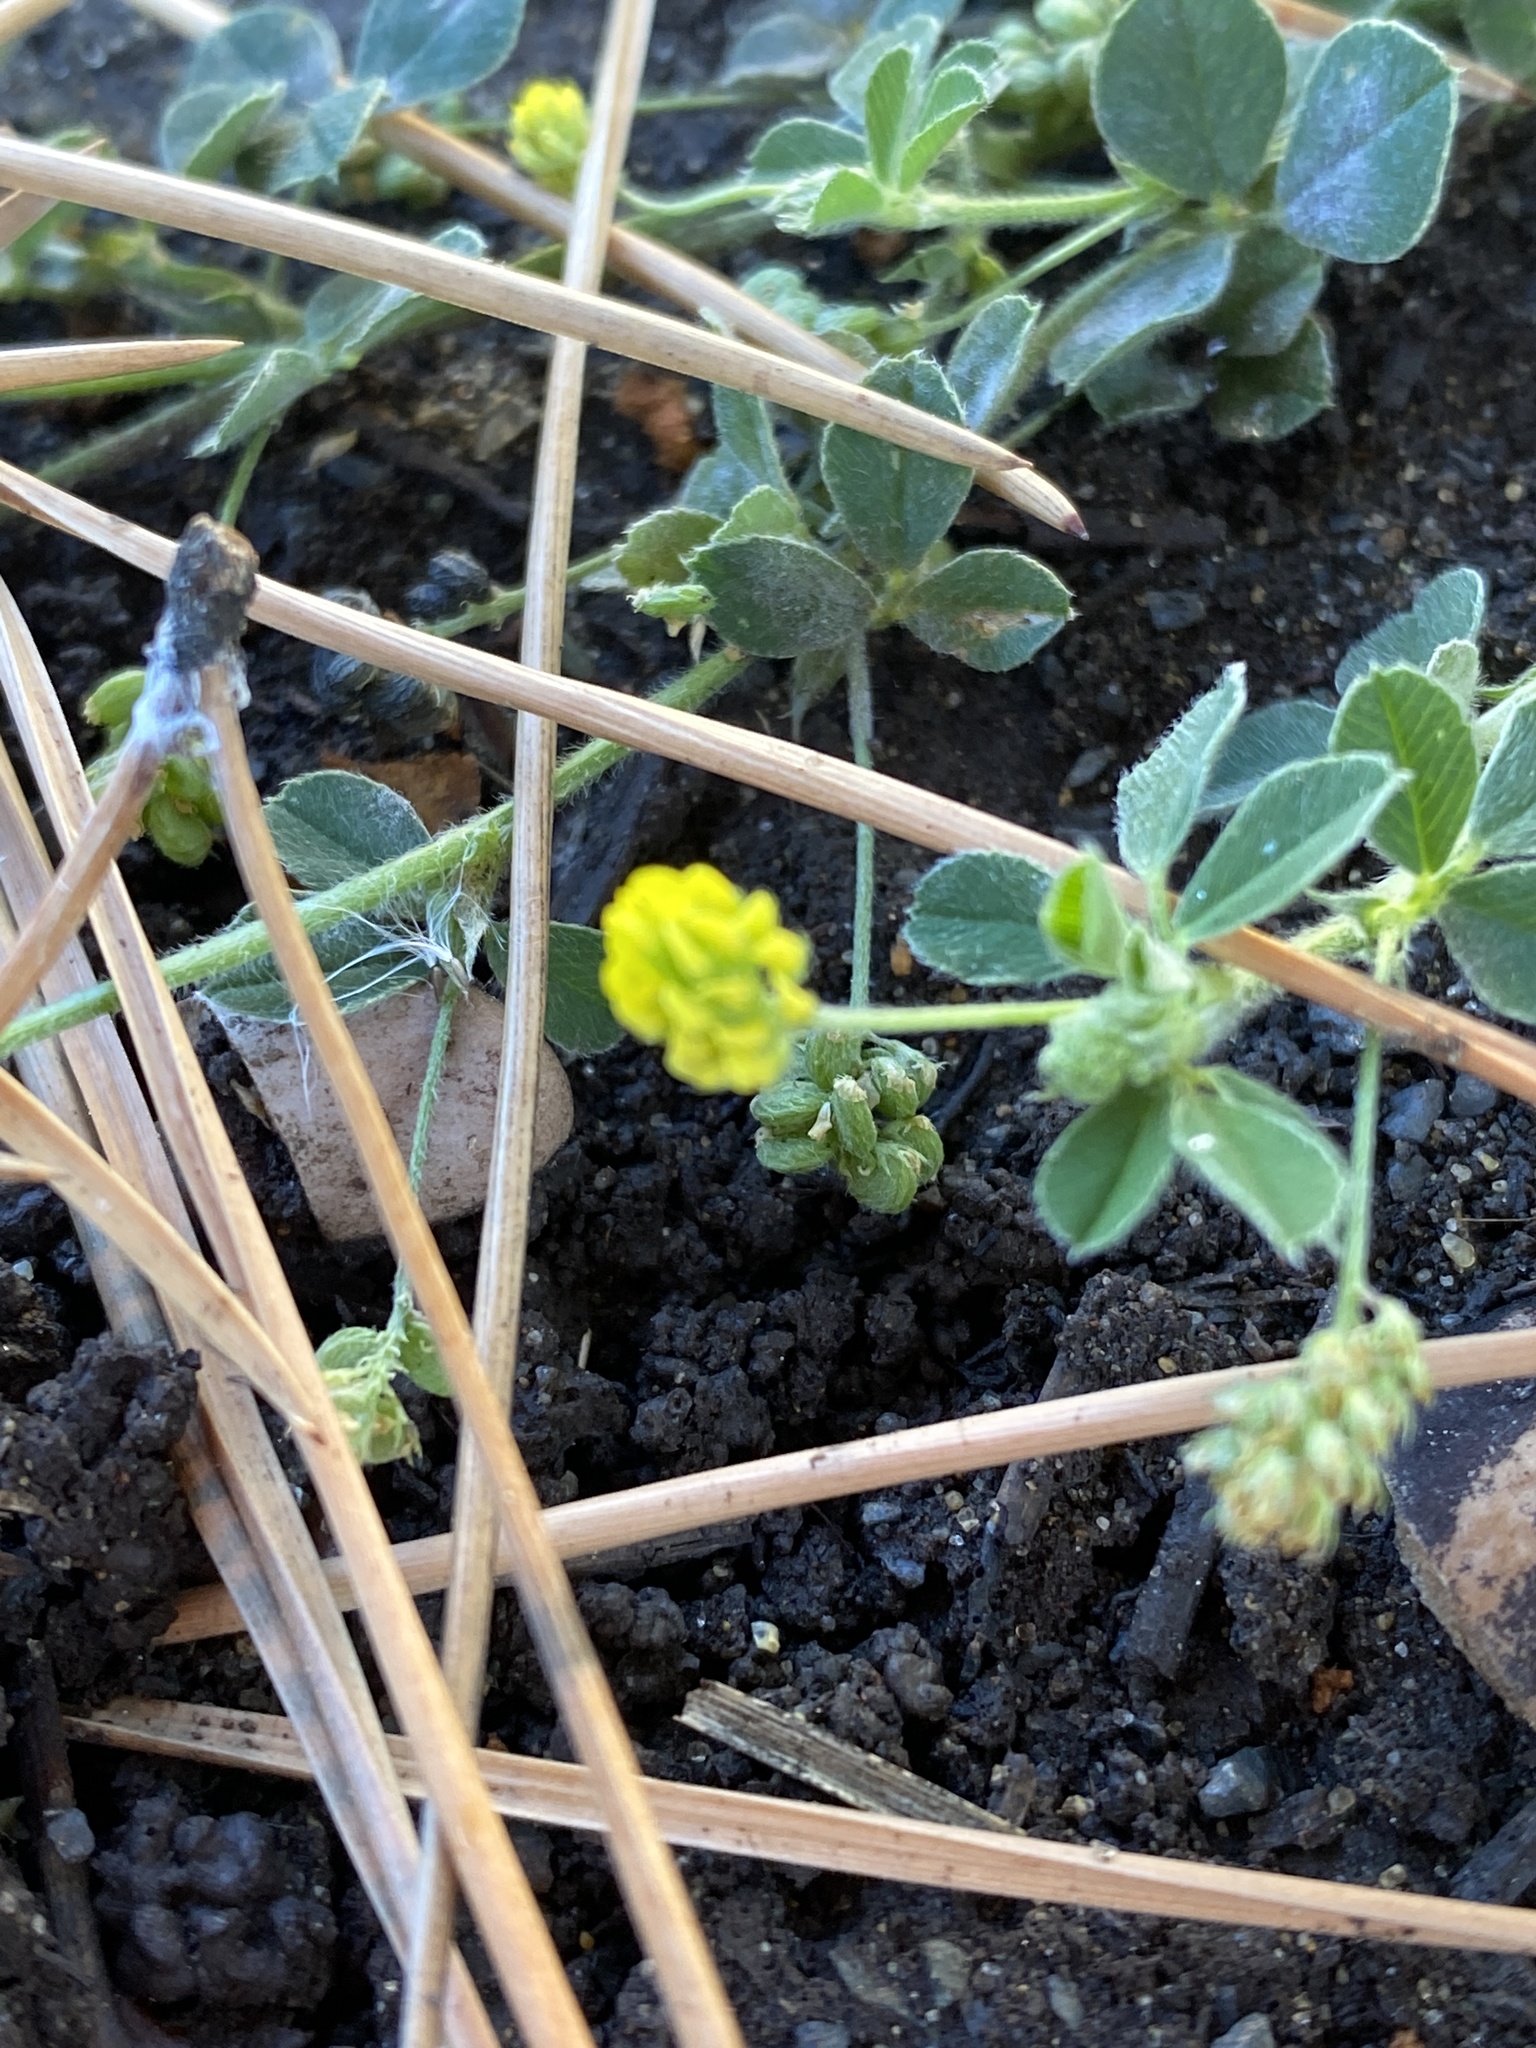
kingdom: Plantae
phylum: Tracheophyta
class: Magnoliopsida
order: Fabales
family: Fabaceae
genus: Medicago
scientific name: Medicago lupulina
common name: Black medick
